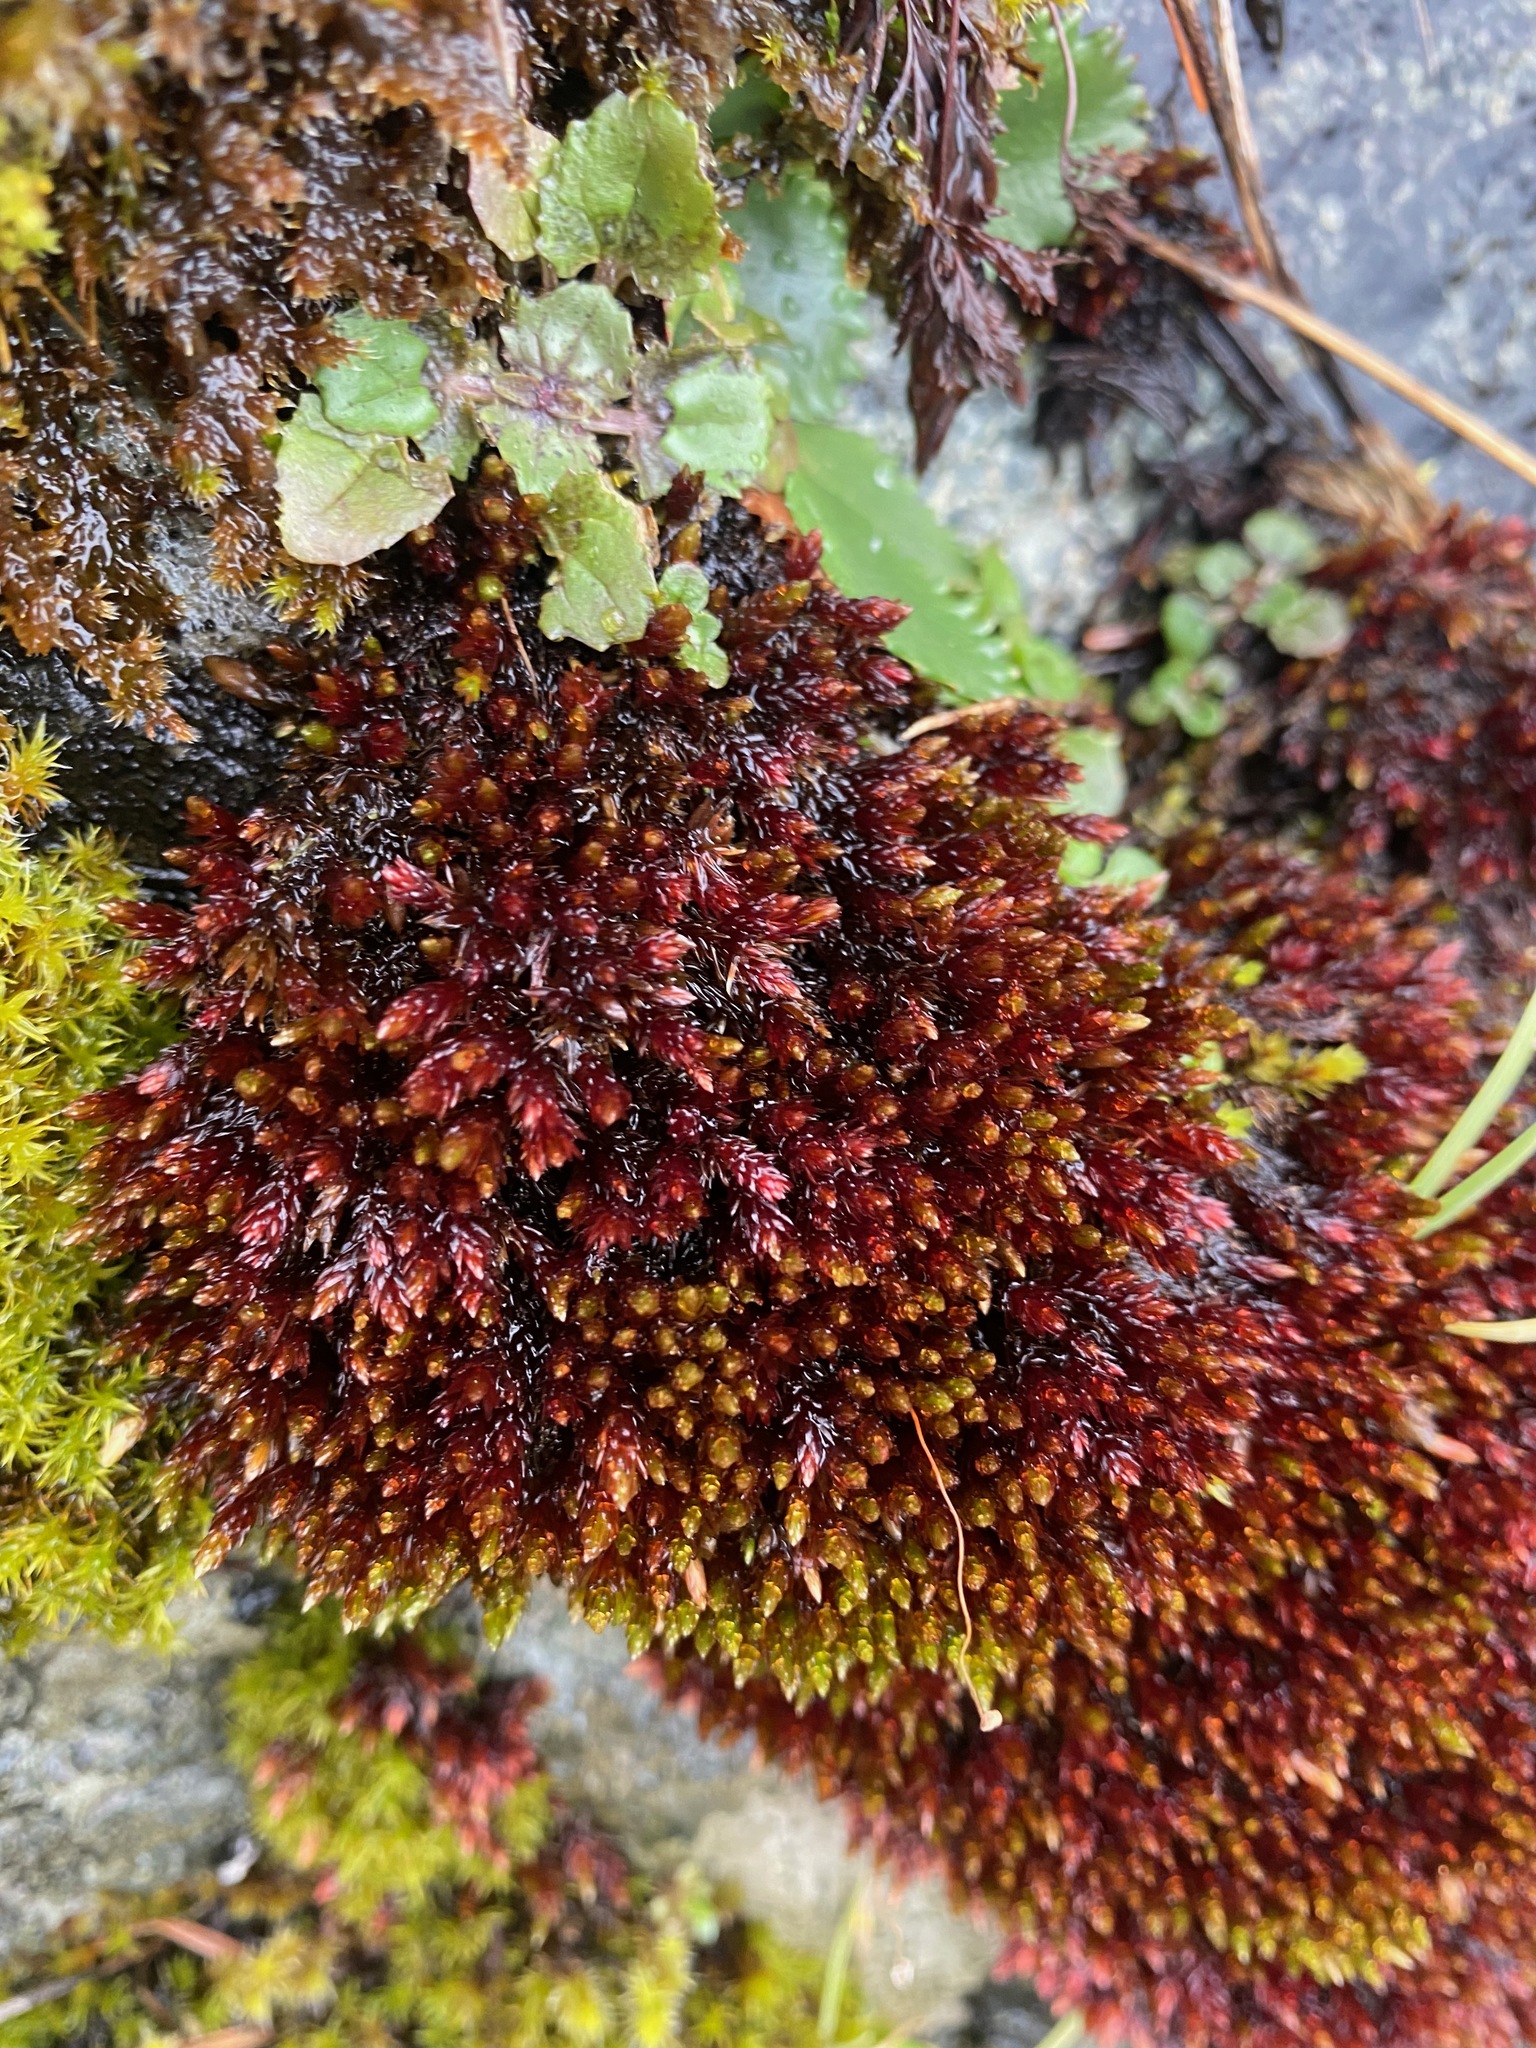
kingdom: Plantae
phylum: Bryophyta
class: Bryopsida
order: Bryales
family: Bryaceae
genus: Imbribryum
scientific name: Imbribryum miniatum
